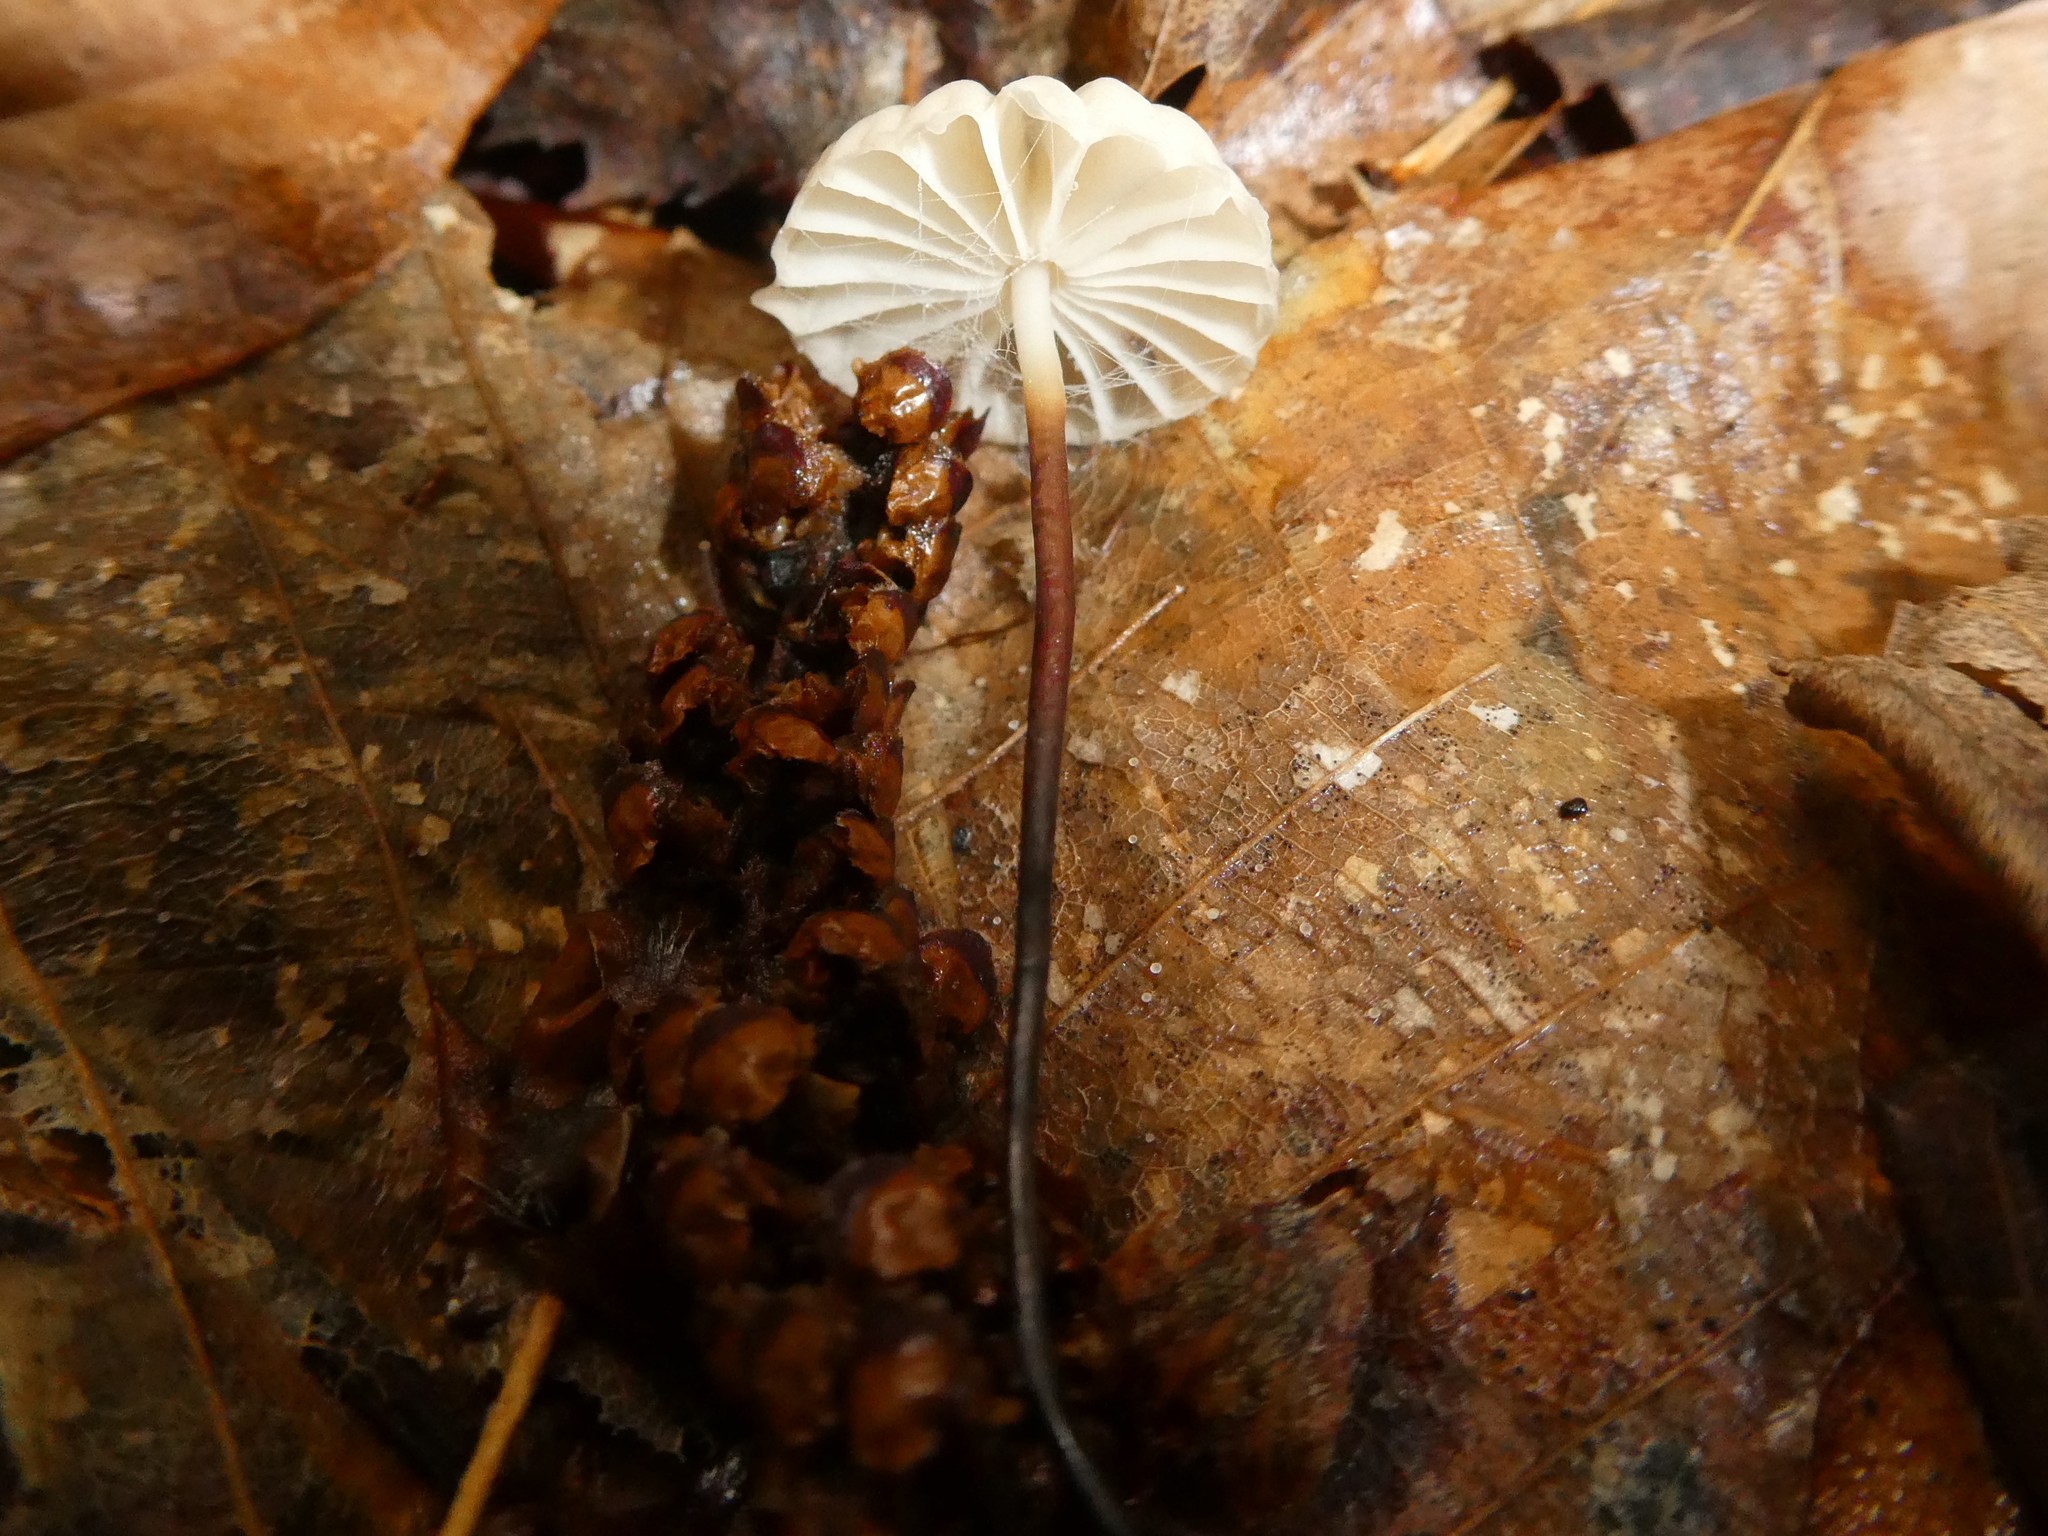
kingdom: Fungi
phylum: Basidiomycota
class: Agaricomycetes
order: Agaricales
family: Marasmiaceae
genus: Marasmius
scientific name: Marasmius capillaris
